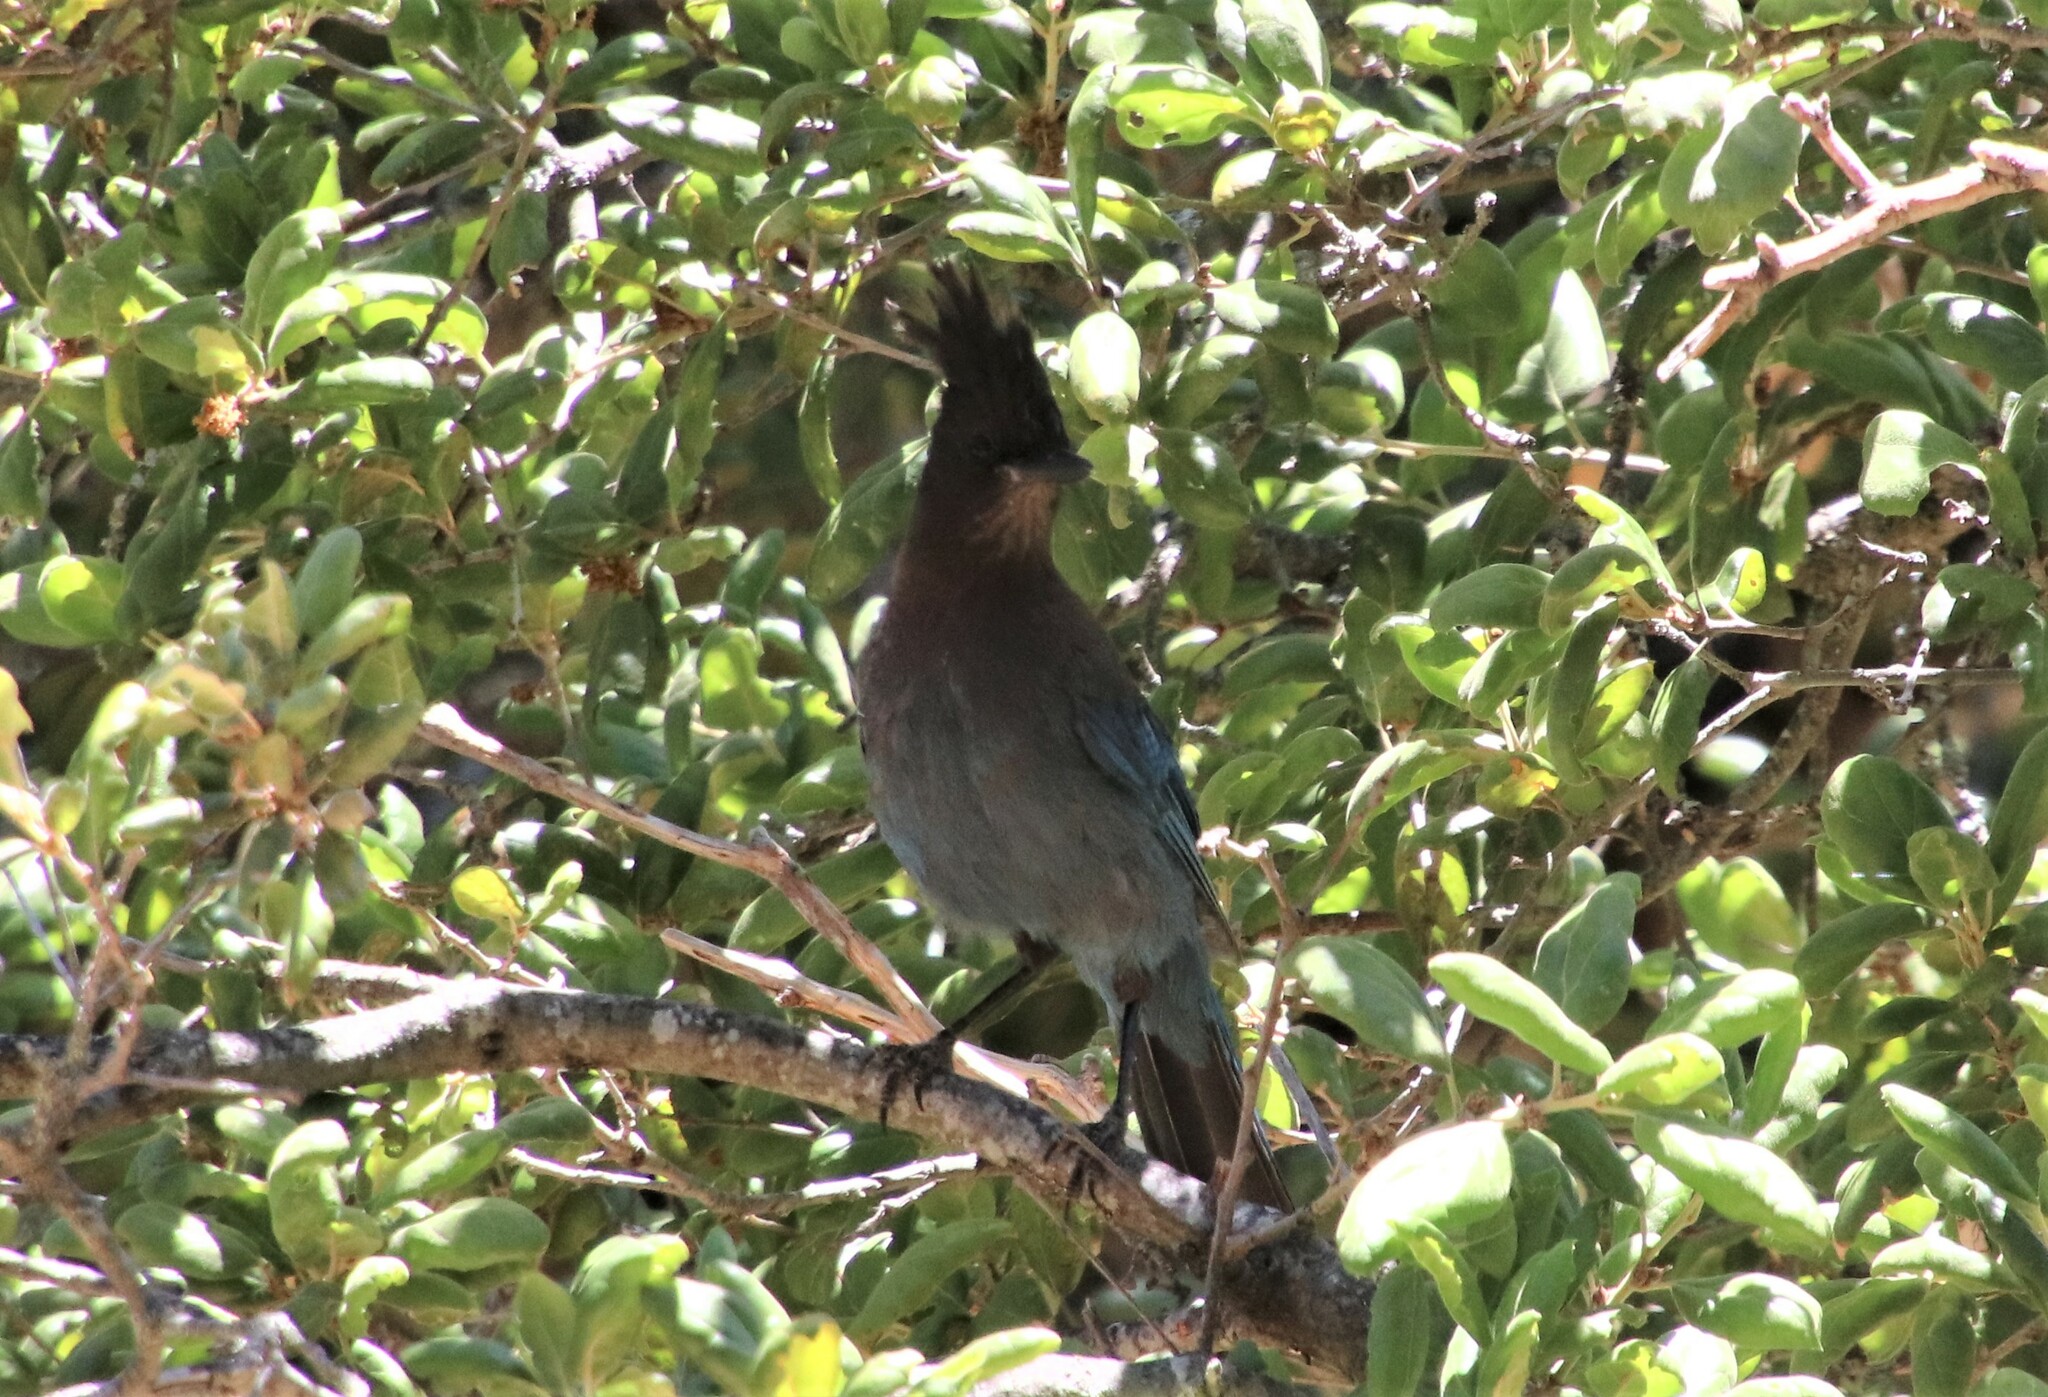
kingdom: Animalia
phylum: Chordata
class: Aves
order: Passeriformes
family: Corvidae
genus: Cyanocitta
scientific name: Cyanocitta stelleri
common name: Steller's jay
